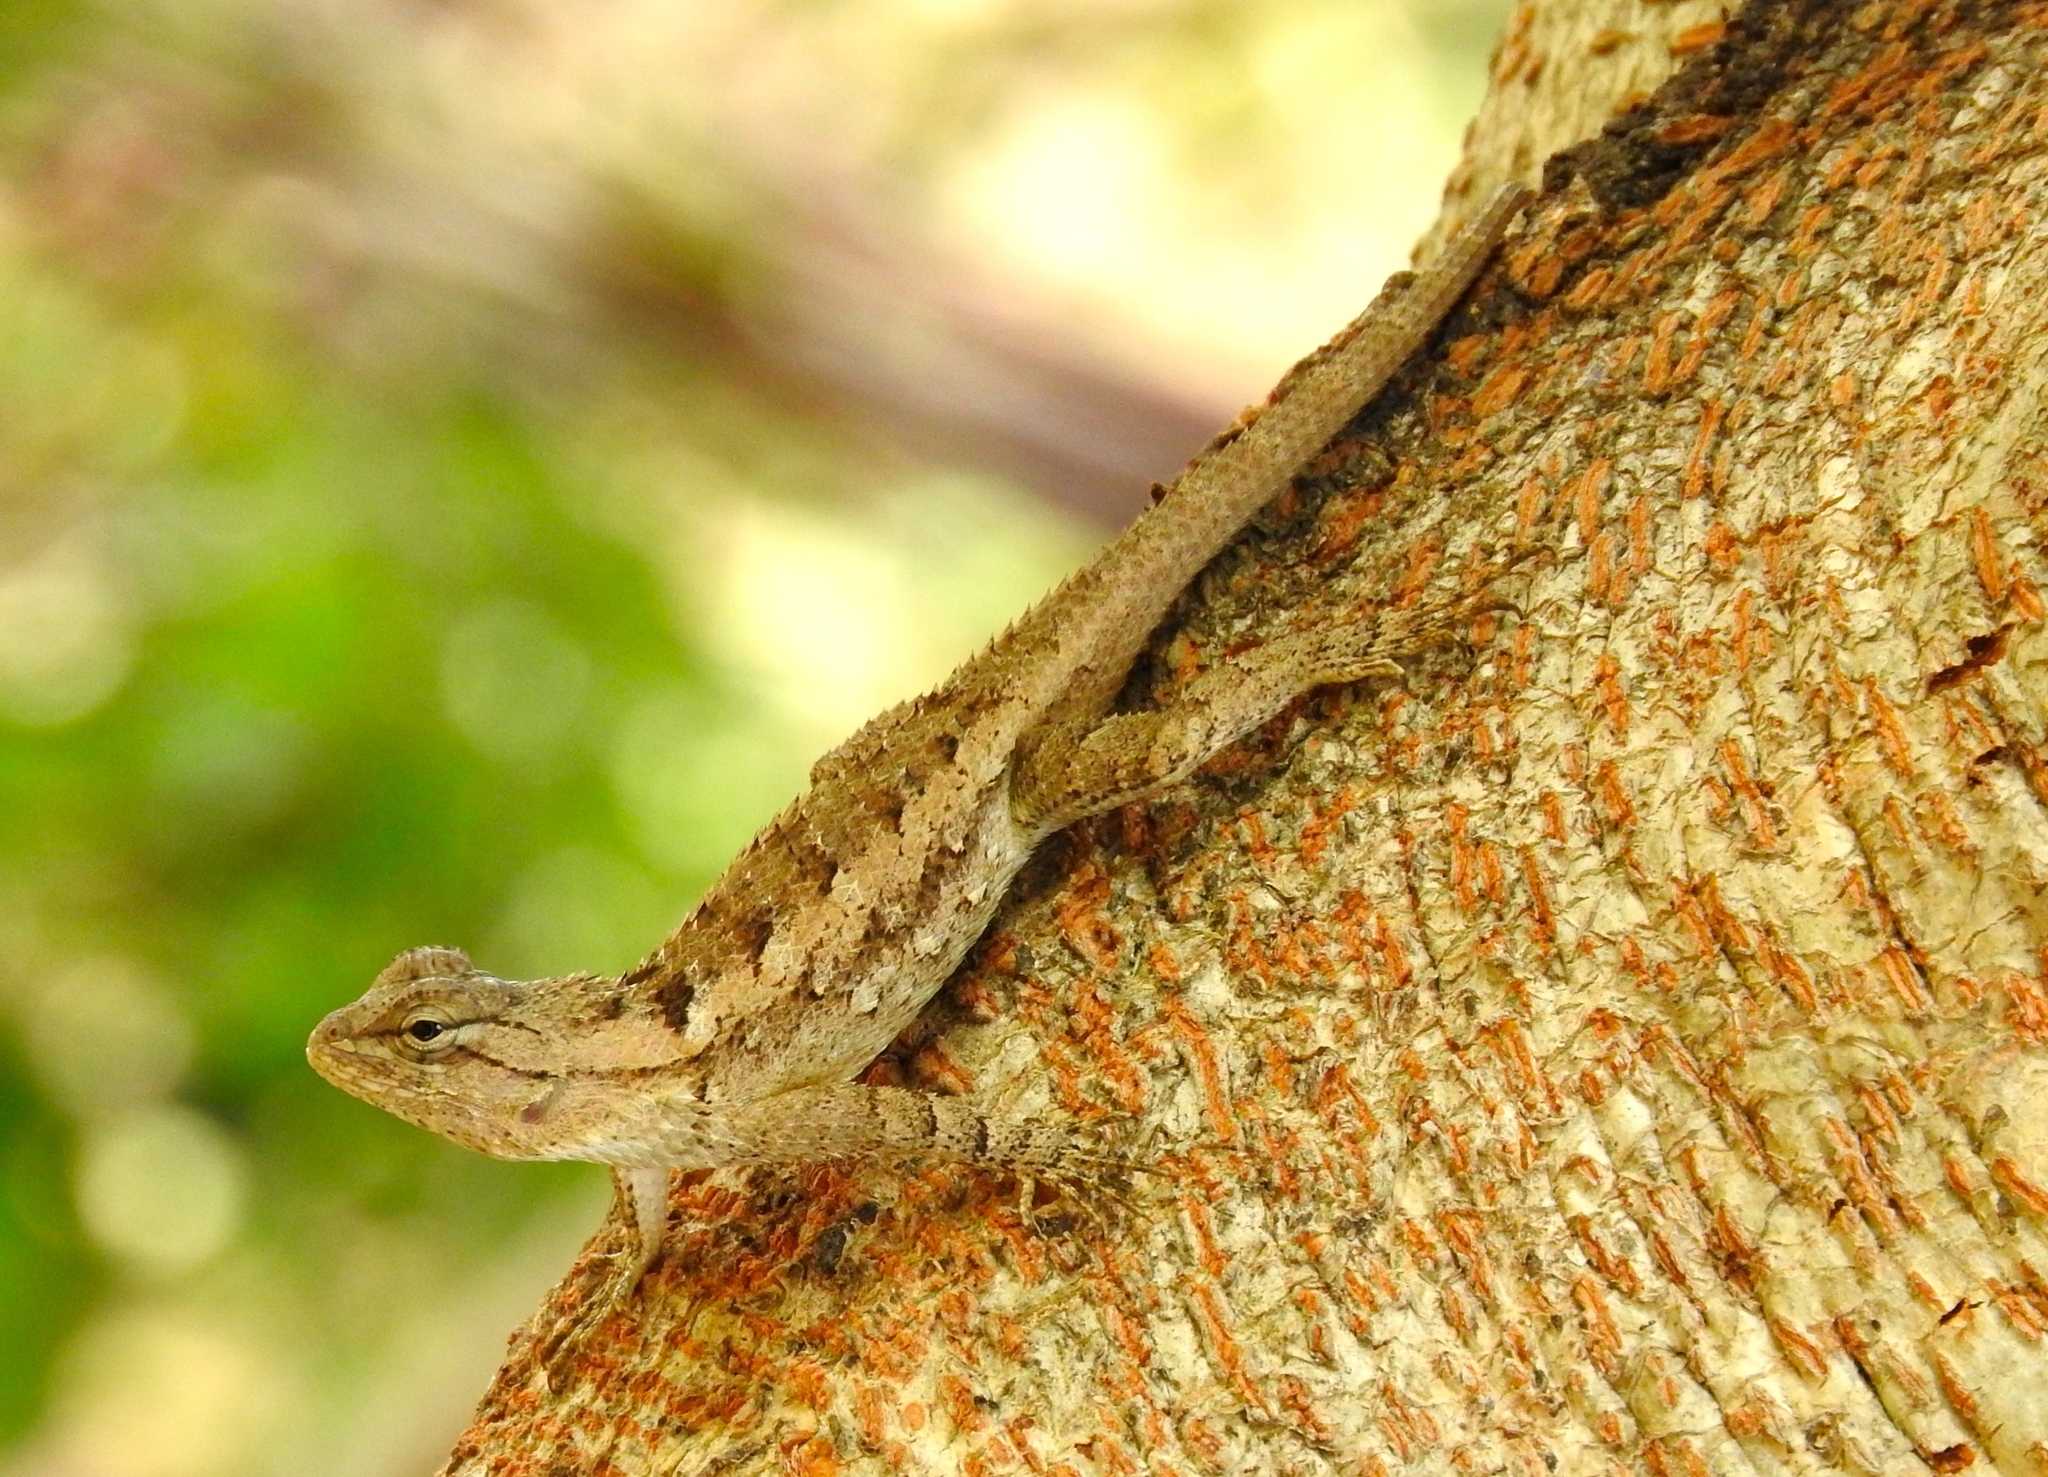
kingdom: Animalia
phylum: Chordata
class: Squamata
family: Phrynosomatidae
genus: Sceloporus
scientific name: Sceloporus clarkii
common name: Clark's spiny lizard
